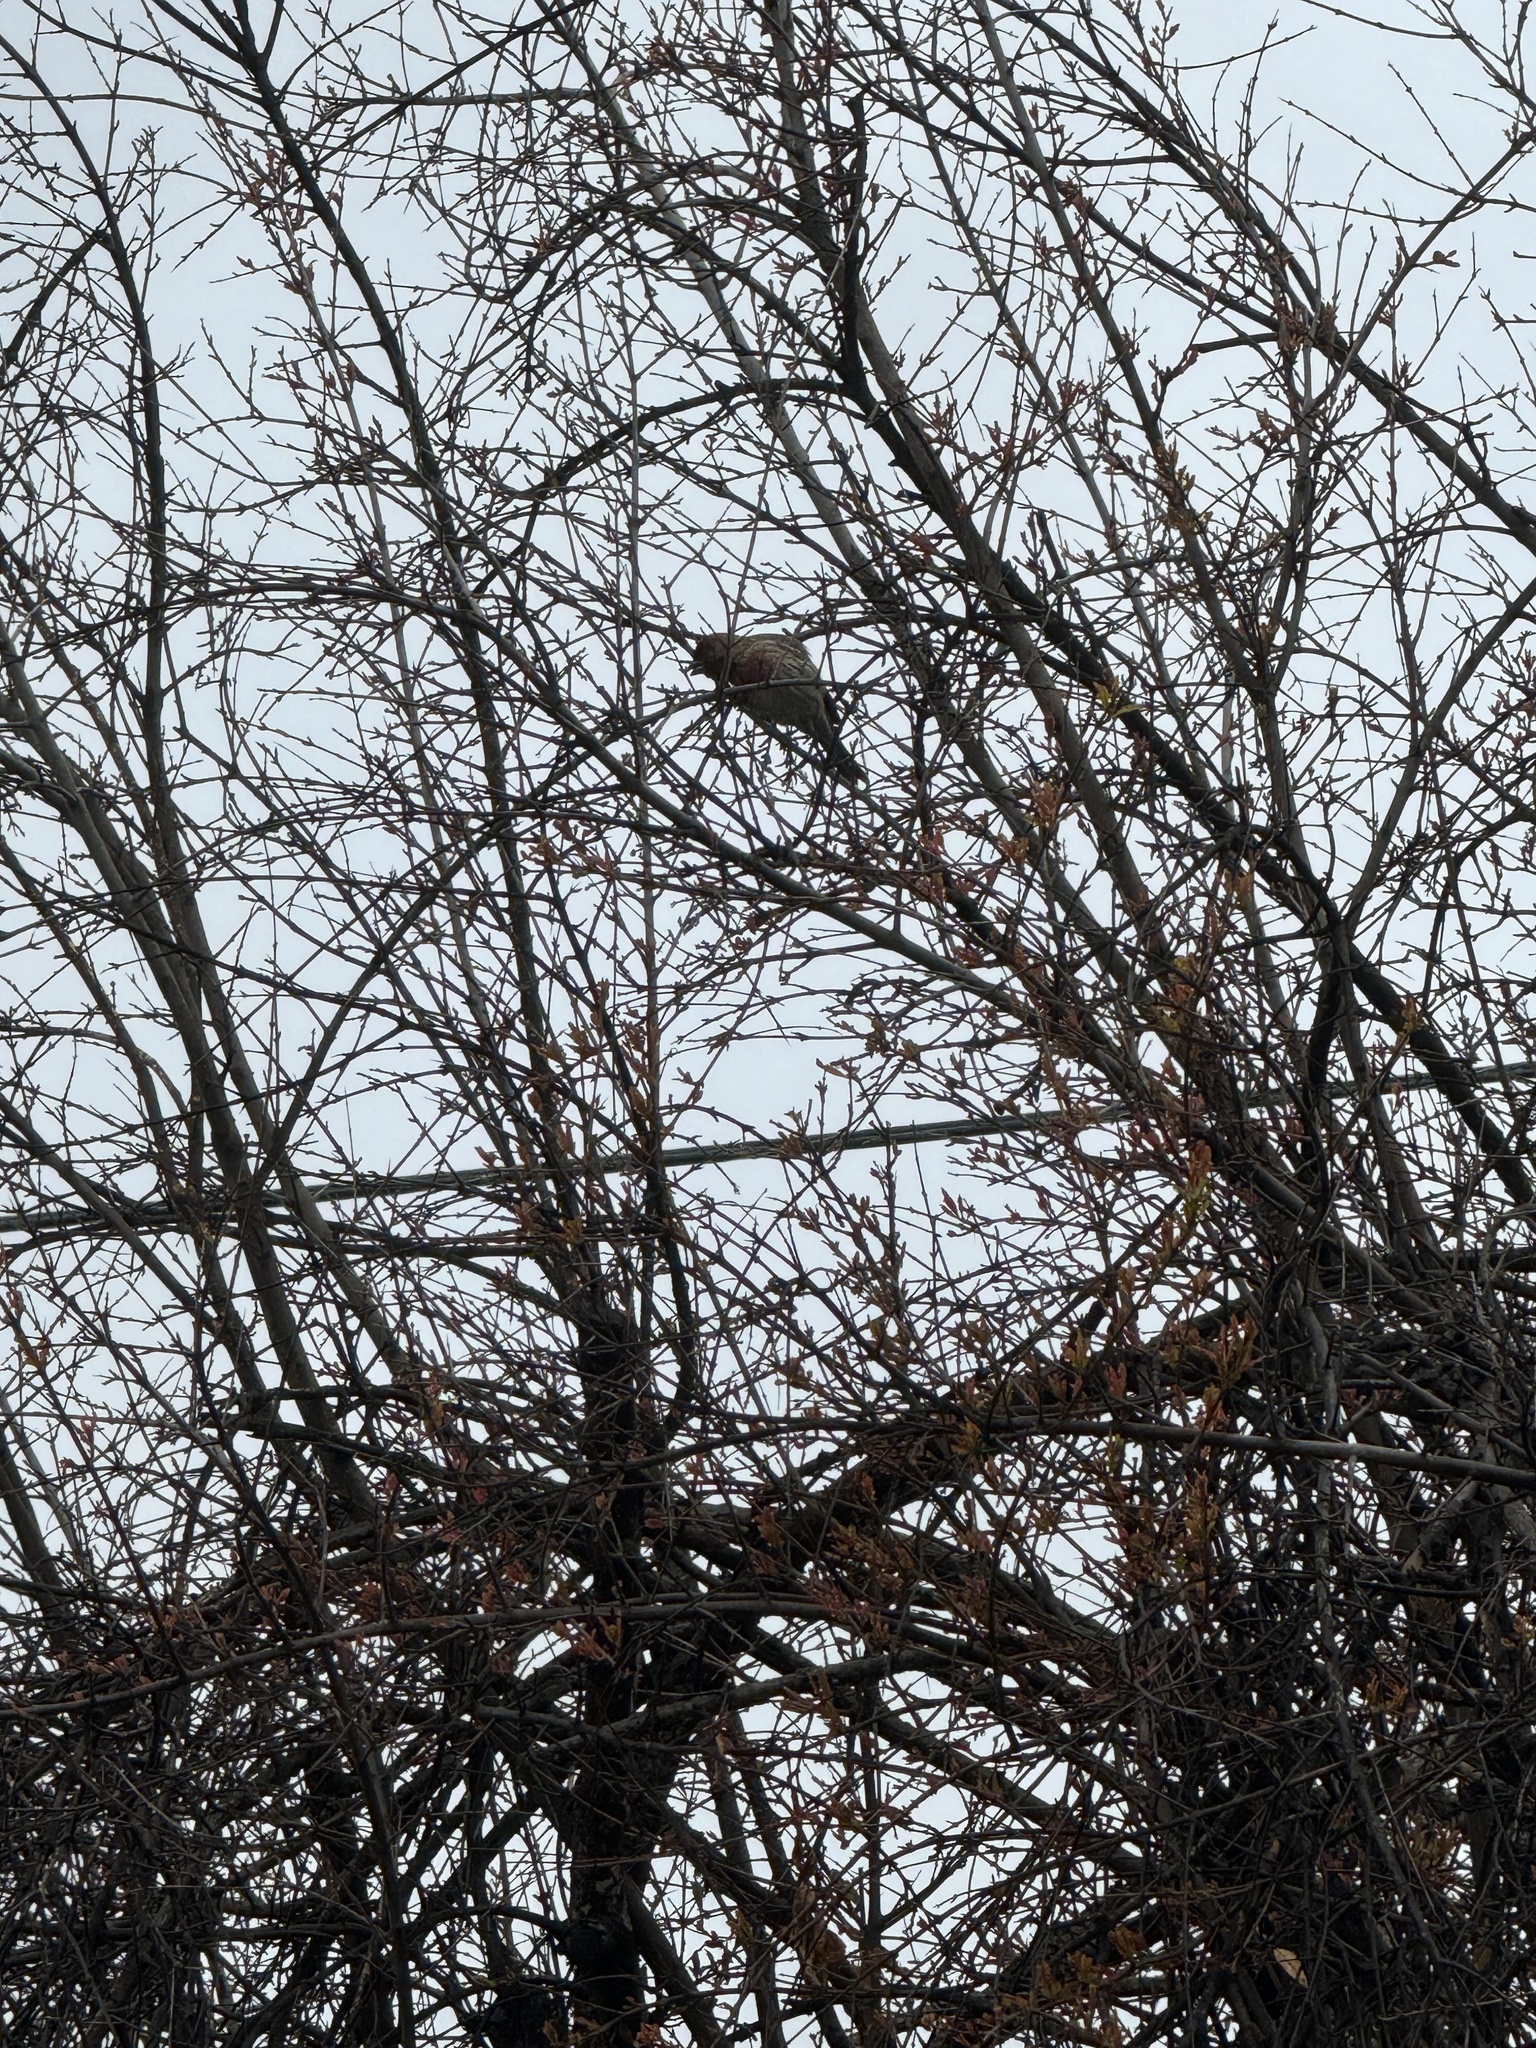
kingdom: Animalia
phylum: Chordata
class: Aves
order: Passeriformes
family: Fringillidae
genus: Haemorhous
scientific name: Haemorhous mexicanus
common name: House finch
